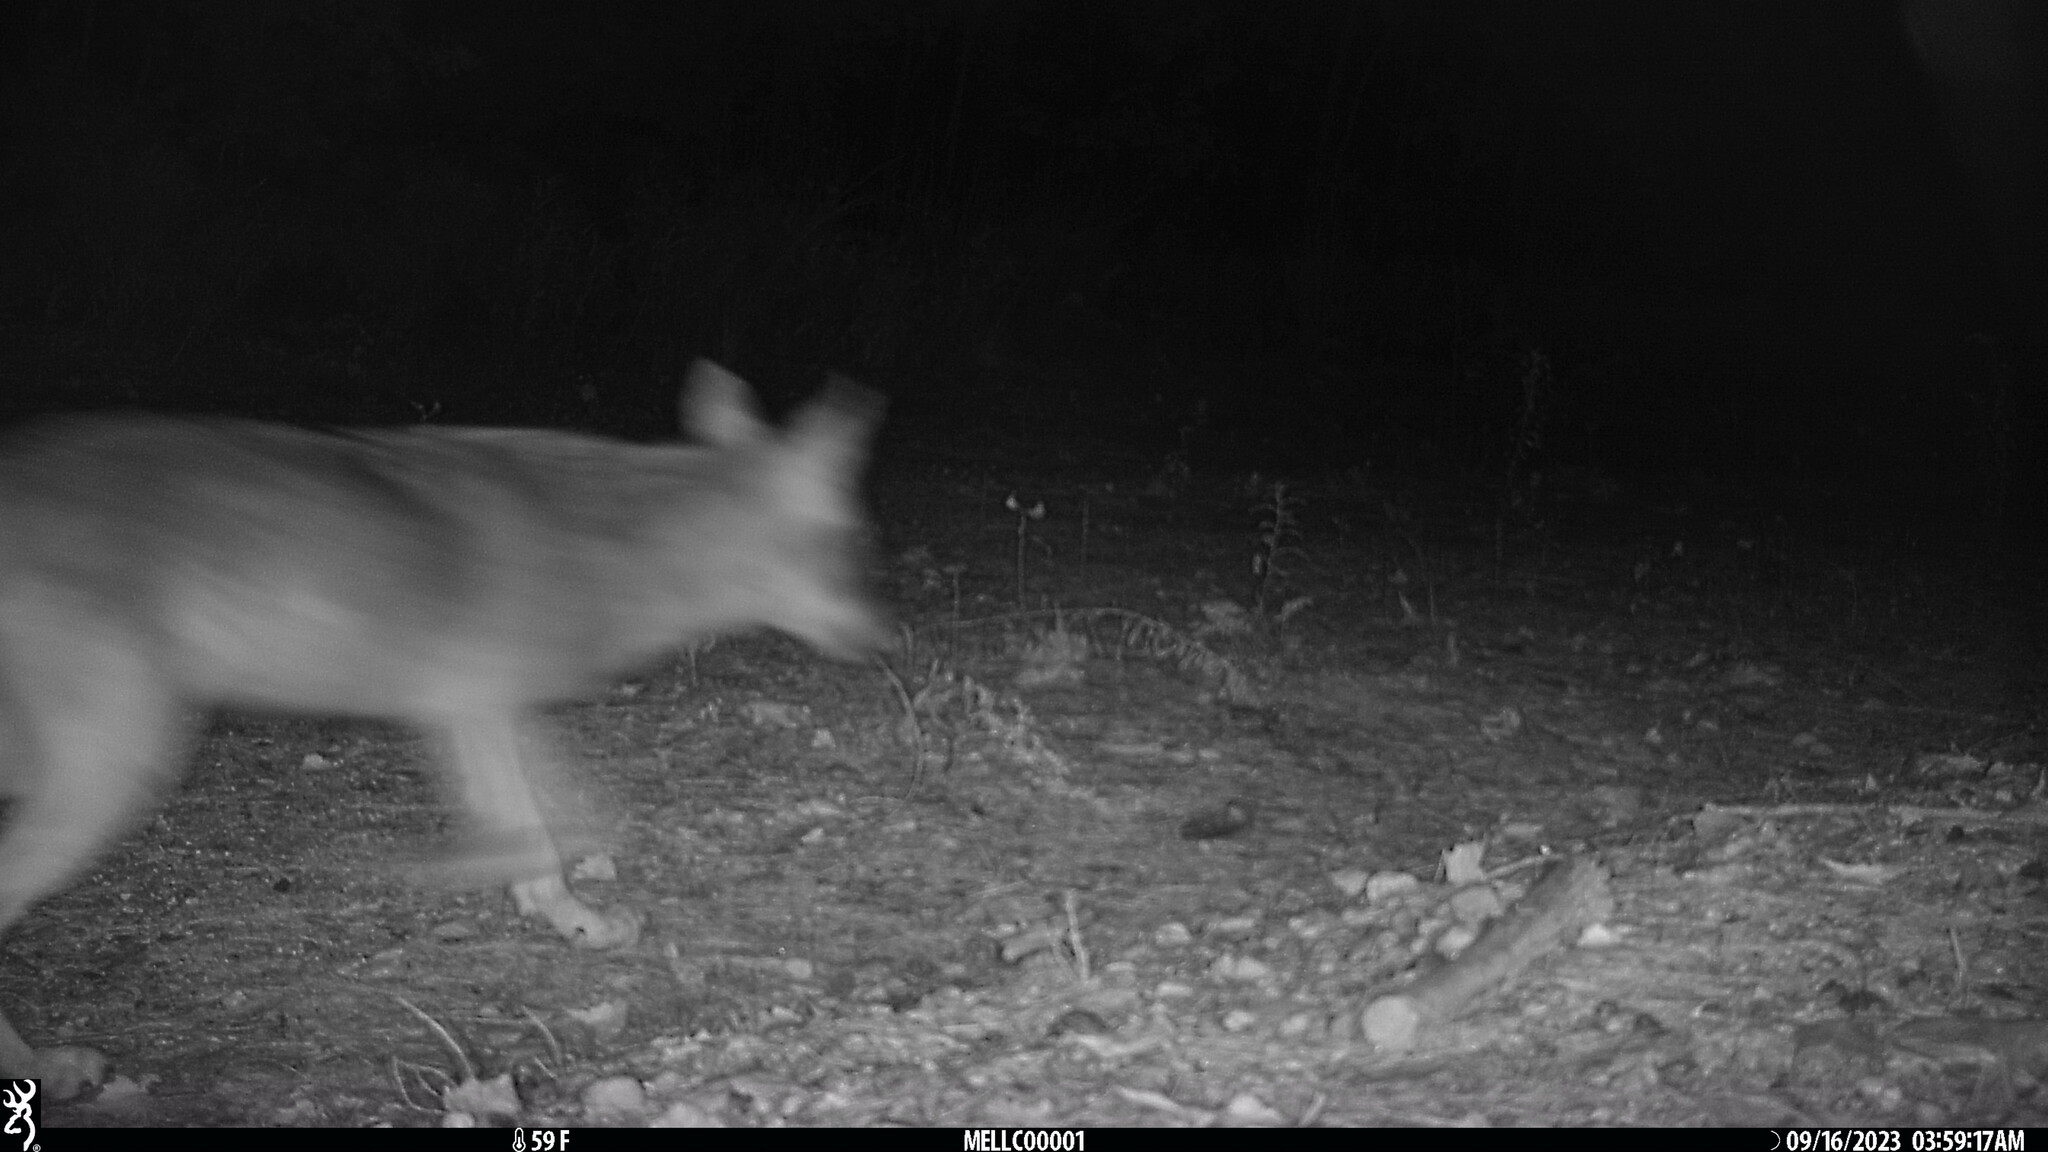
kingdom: Animalia
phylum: Chordata
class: Mammalia
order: Carnivora
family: Canidae
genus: Canis
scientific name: Canis latrans
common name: Coyote
